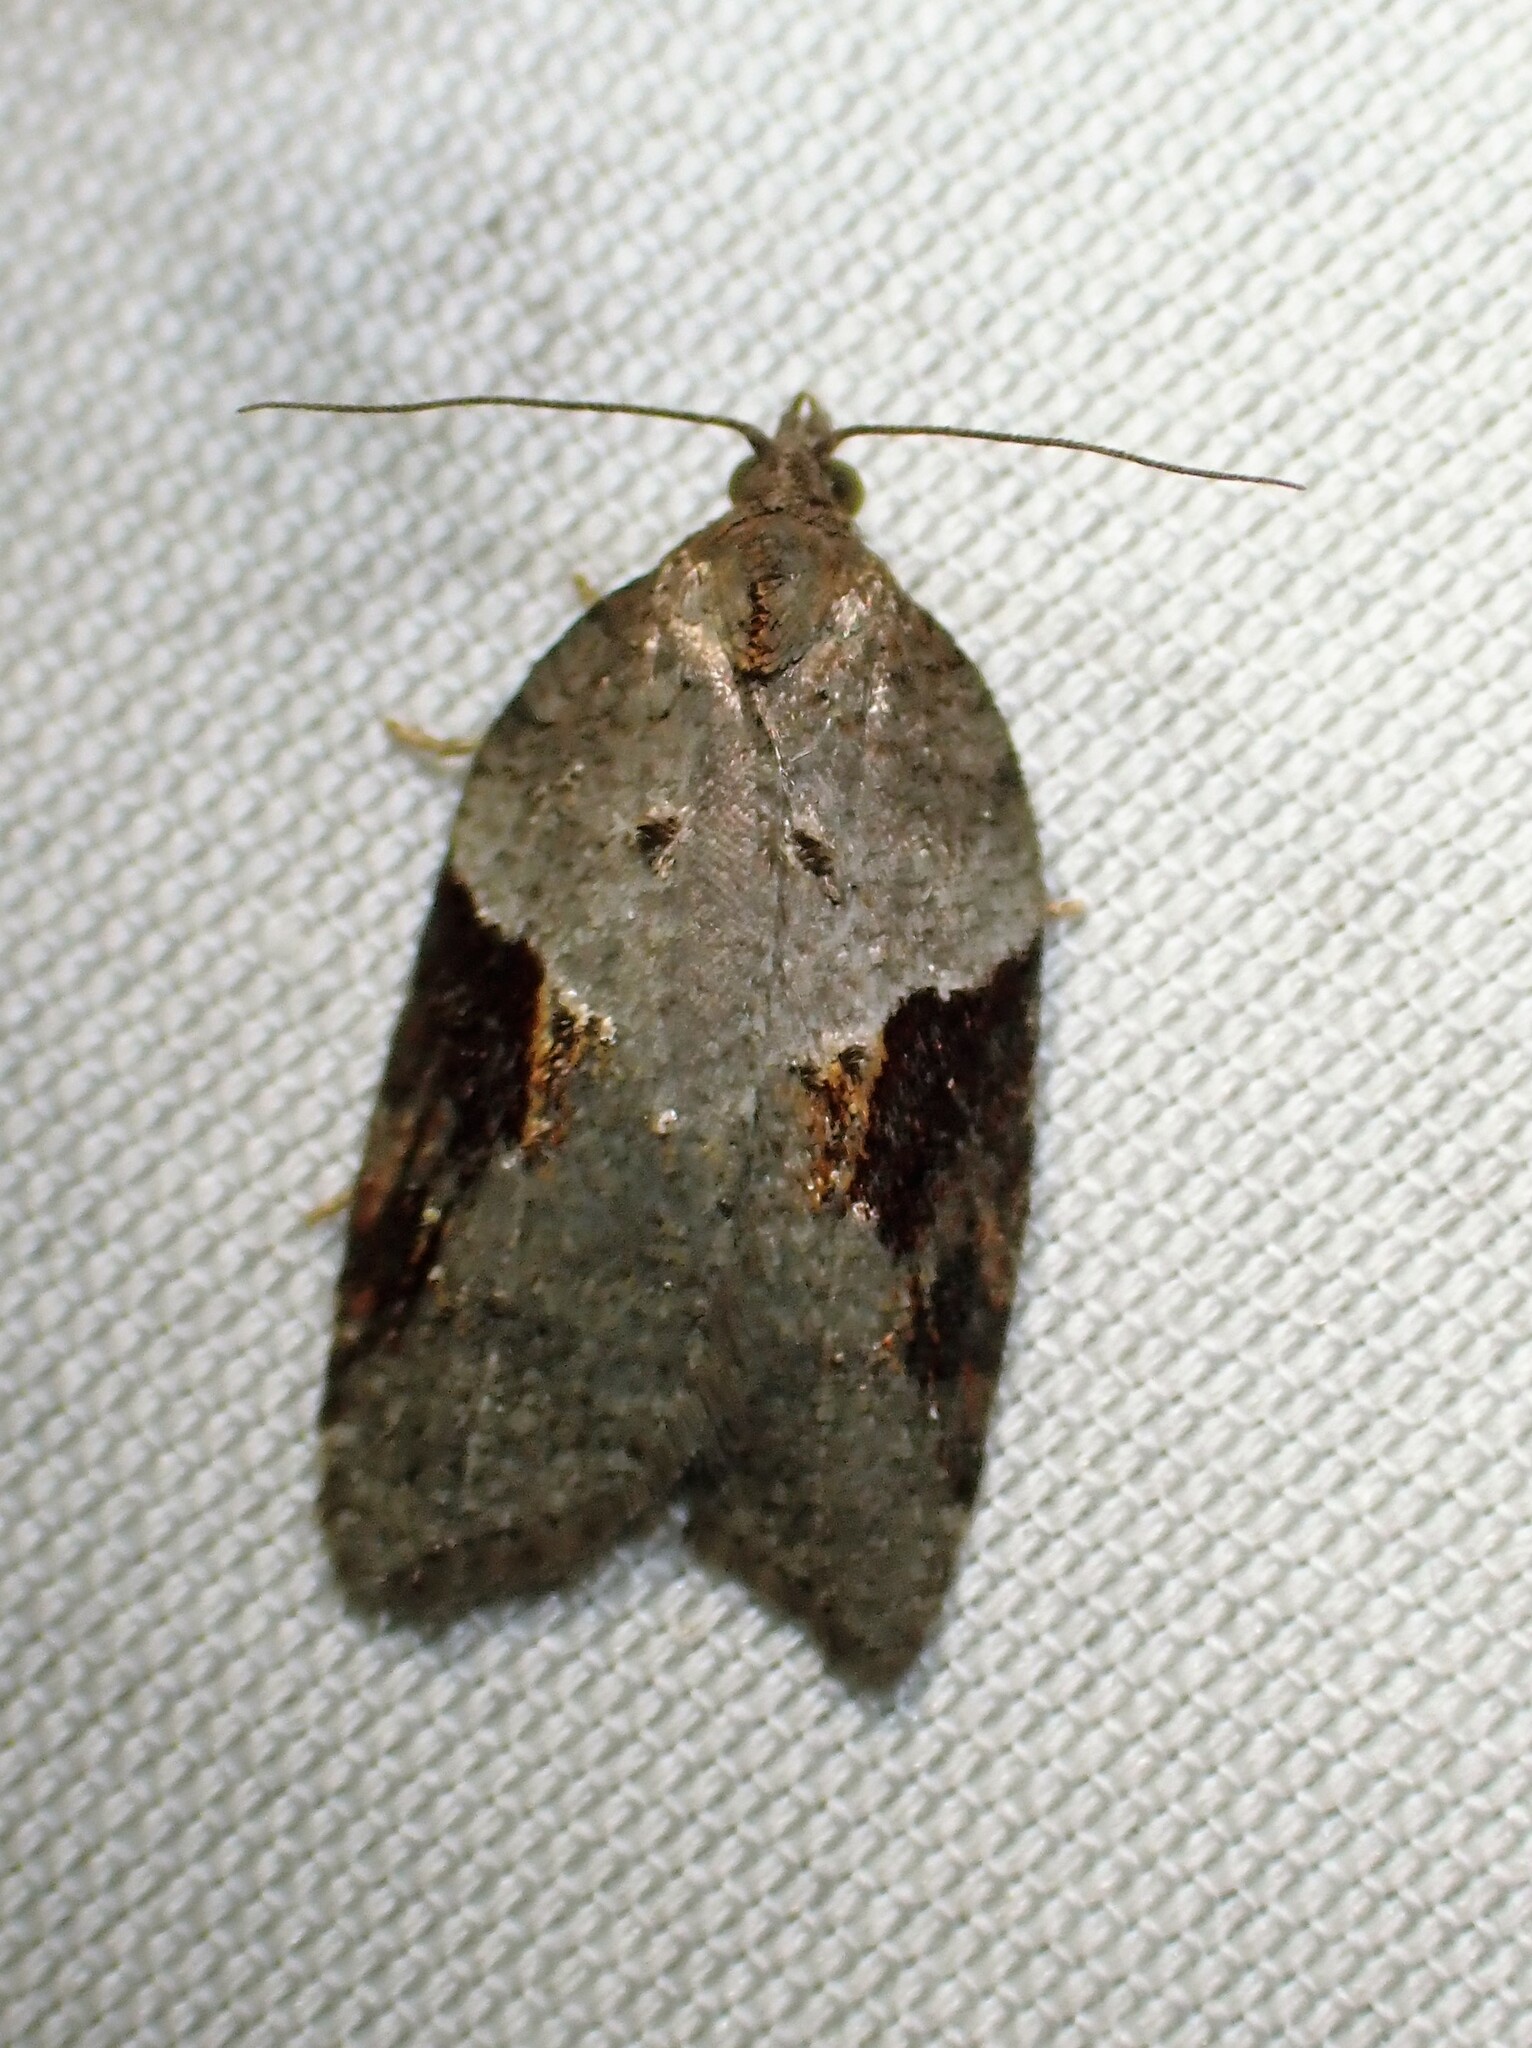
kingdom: Animalia
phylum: Arthropoda
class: Insecta
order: Lepidoptera
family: Tortricidae
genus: Acleris
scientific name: Acleris macdunnoughi
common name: Macdunnough's acleris
